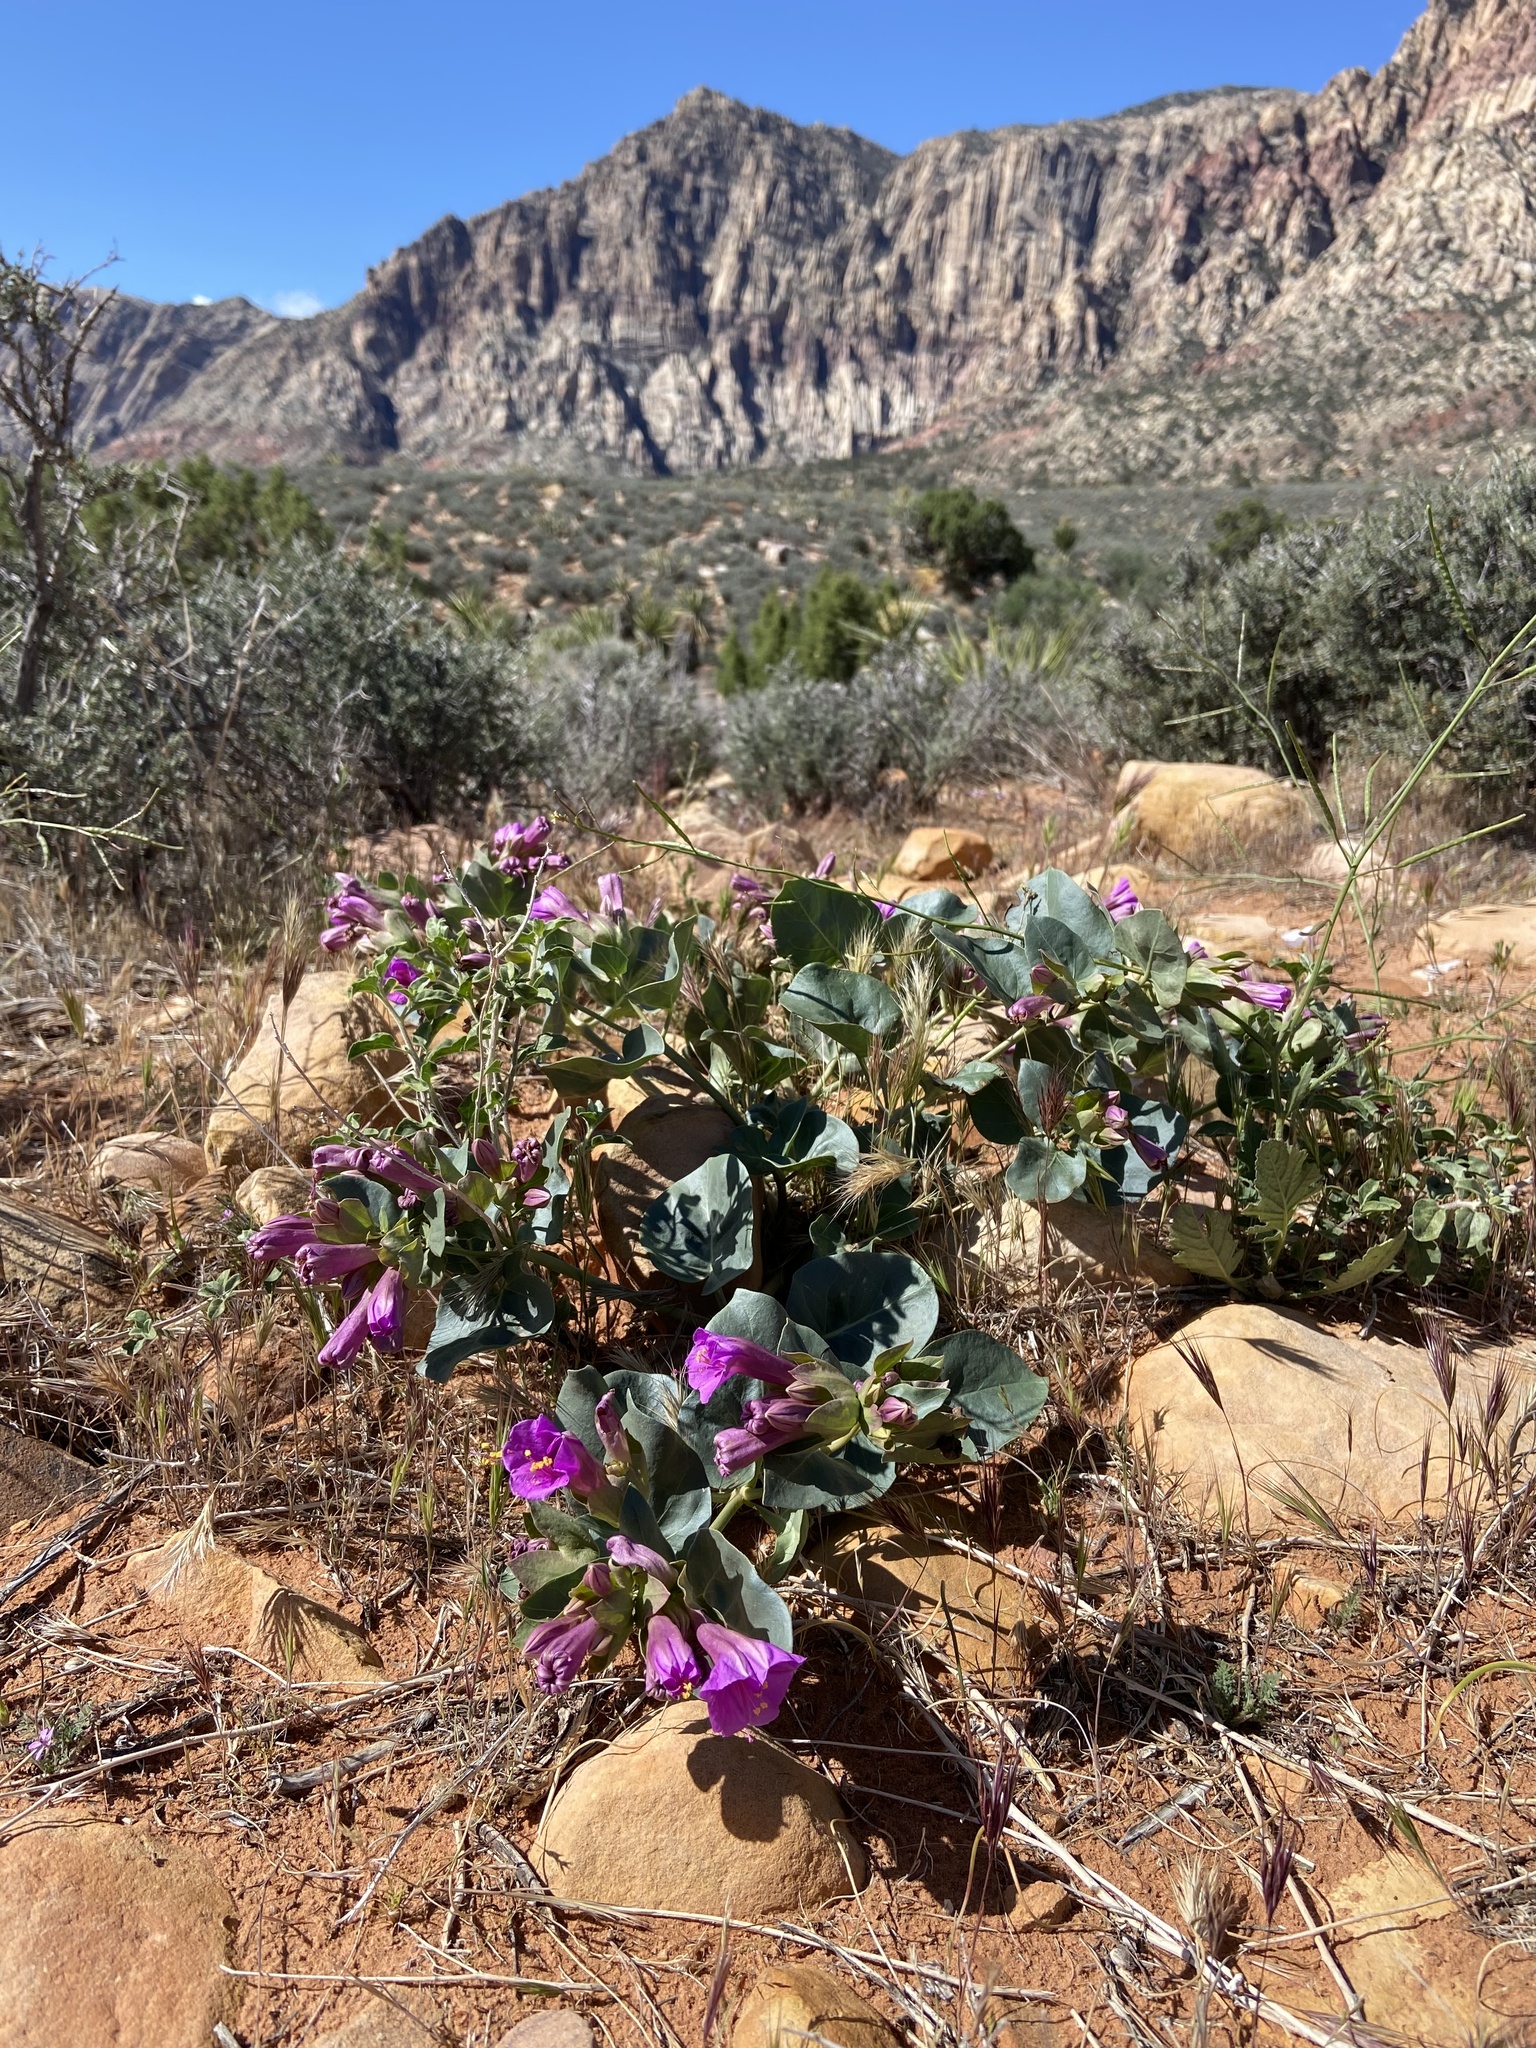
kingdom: Plantae
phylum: Tracheophyta
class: Magnoliopsida
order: Caryophyllales
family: Nyctaginaceae
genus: Mirabilis
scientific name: Mirabilis multiflora
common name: Froebel's four-o'clock
